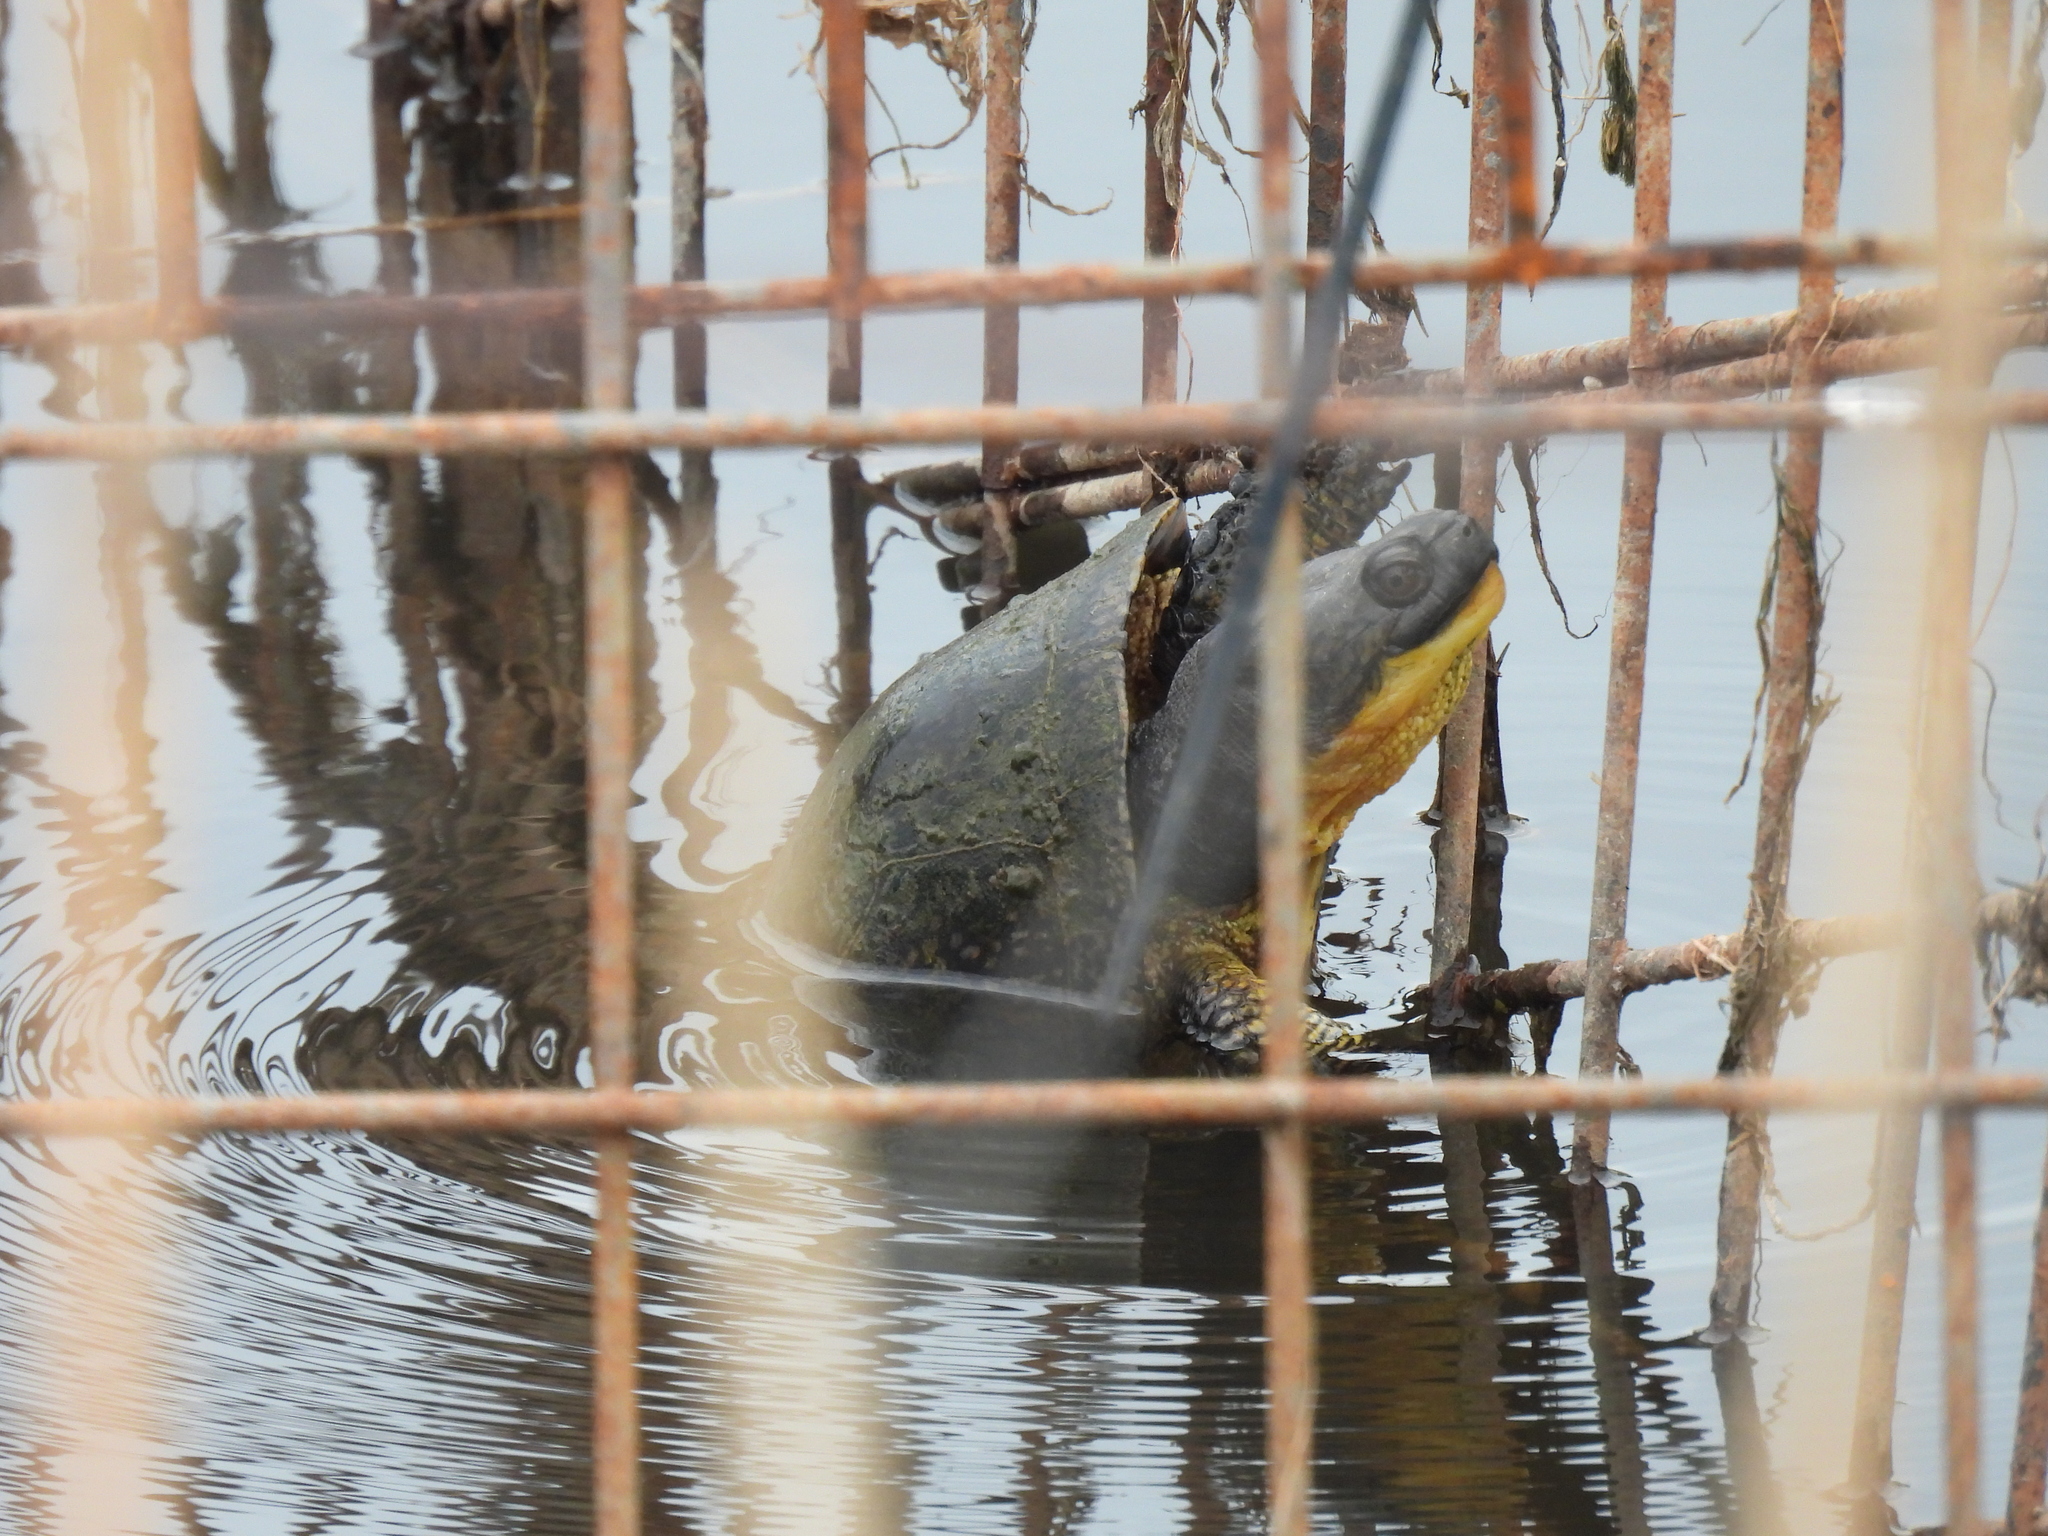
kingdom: Animalia
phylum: Chordata
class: Testudines
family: Emydidae
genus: Emys
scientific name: Emys blandingii
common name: Blanding's turtle
